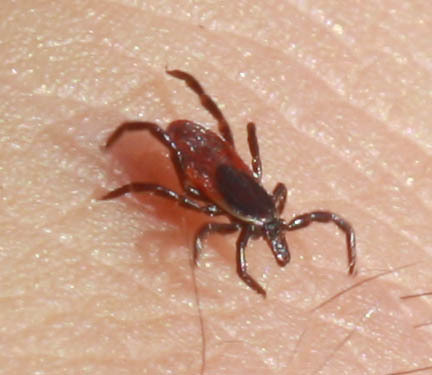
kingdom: Animalia
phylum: Arthropoda
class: Arachnida
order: Ixodida
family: Ixodidae
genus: Ixodes
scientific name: Ixodes pacificus
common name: California black-legged tick
